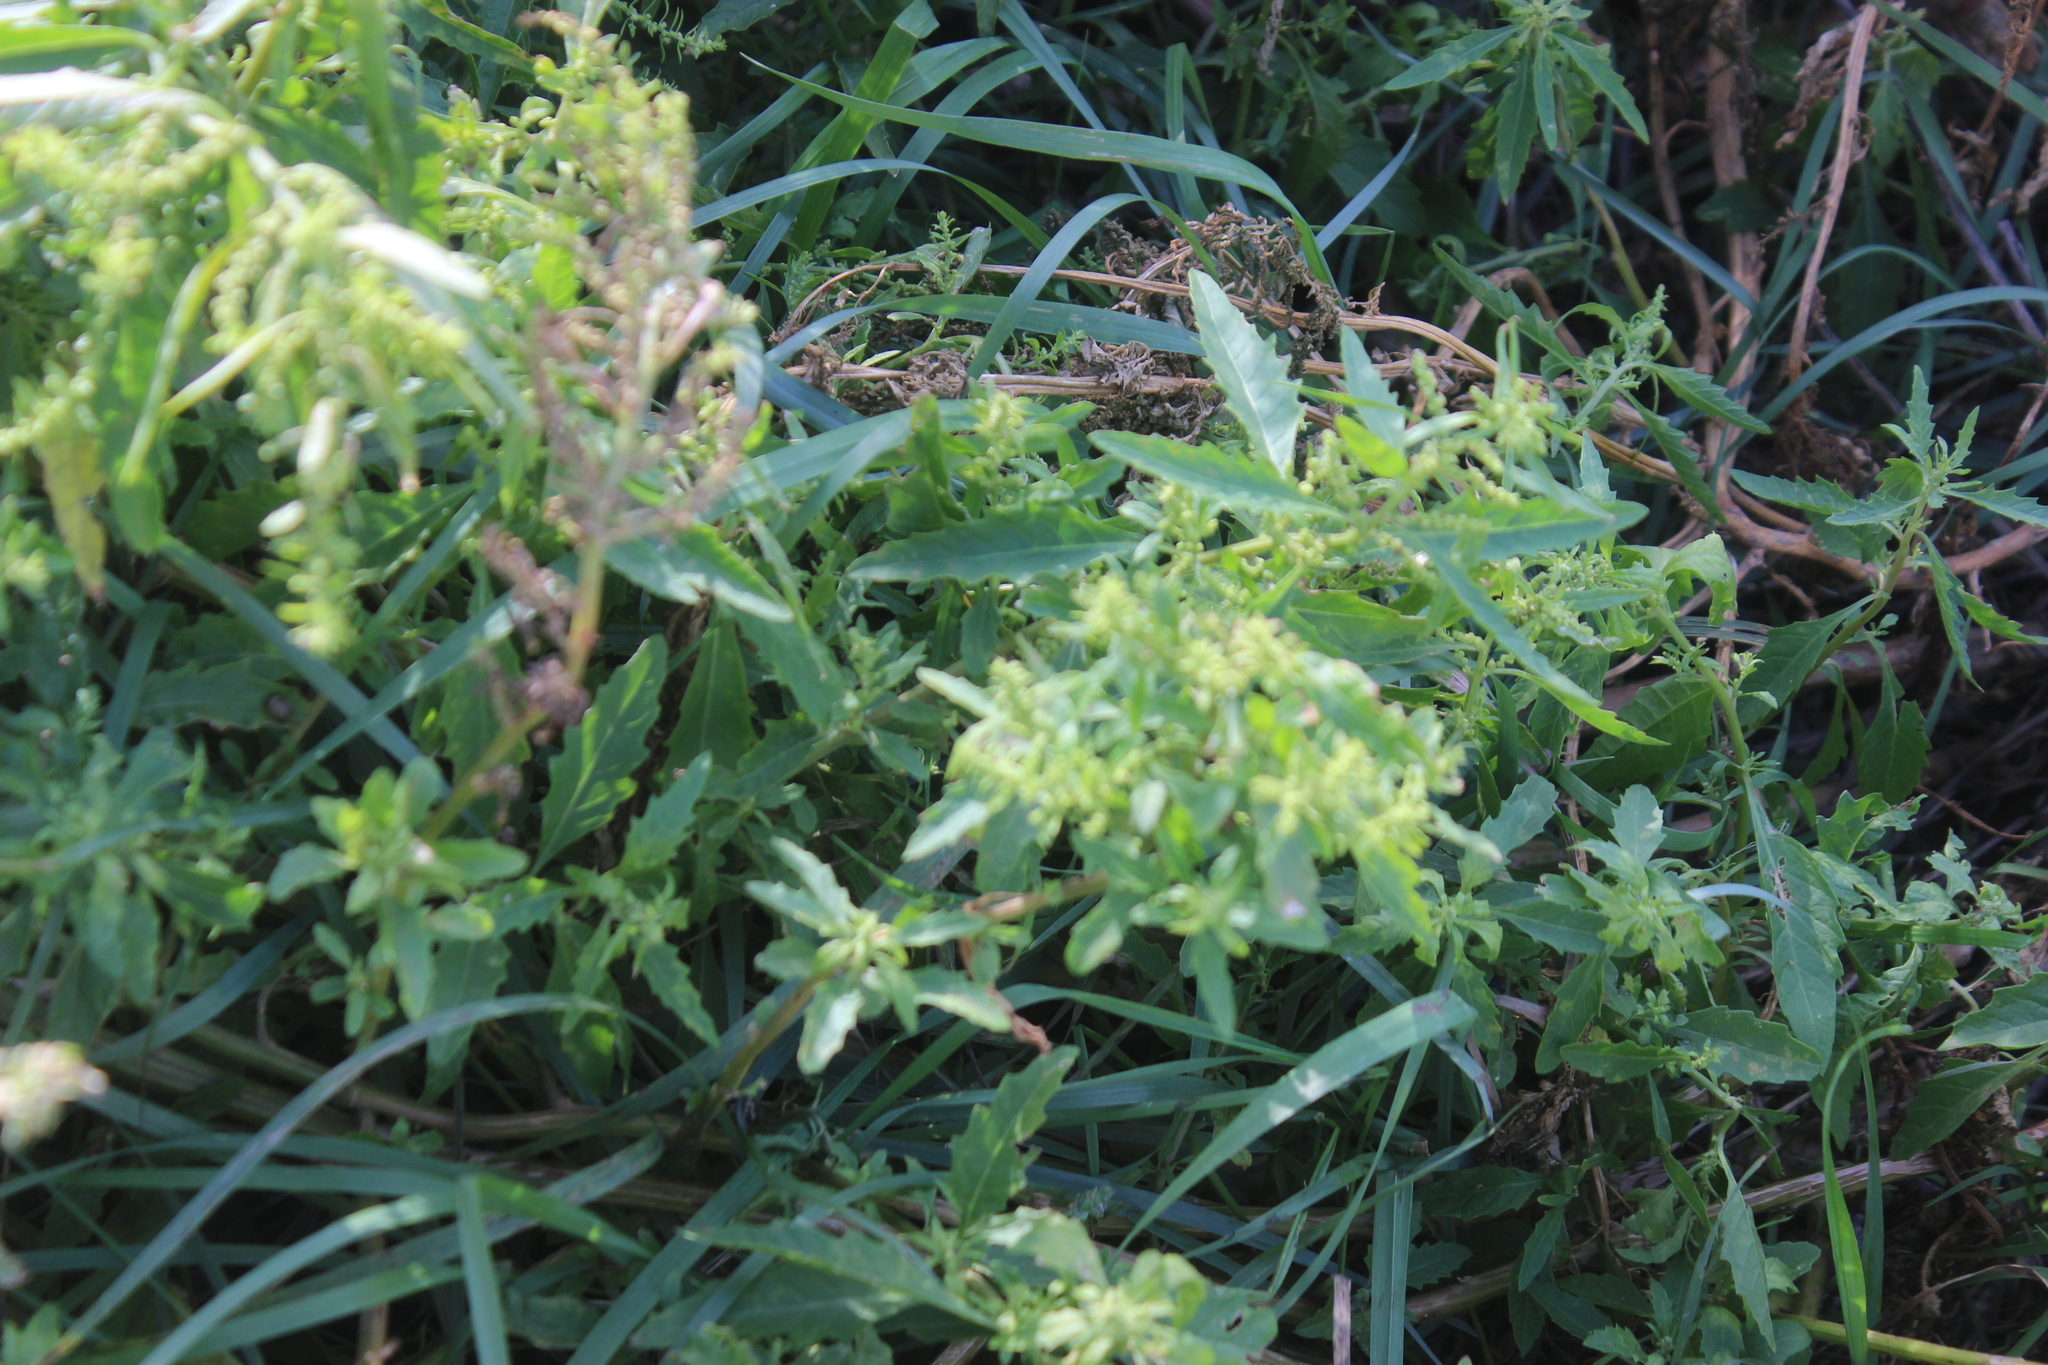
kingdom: Plantae
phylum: Tracheophyta
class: Magnoliopsida
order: Caryophyllales
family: Amaranthaceae
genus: Dysphania
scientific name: Dysphania ambrosioides
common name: Wormseed
